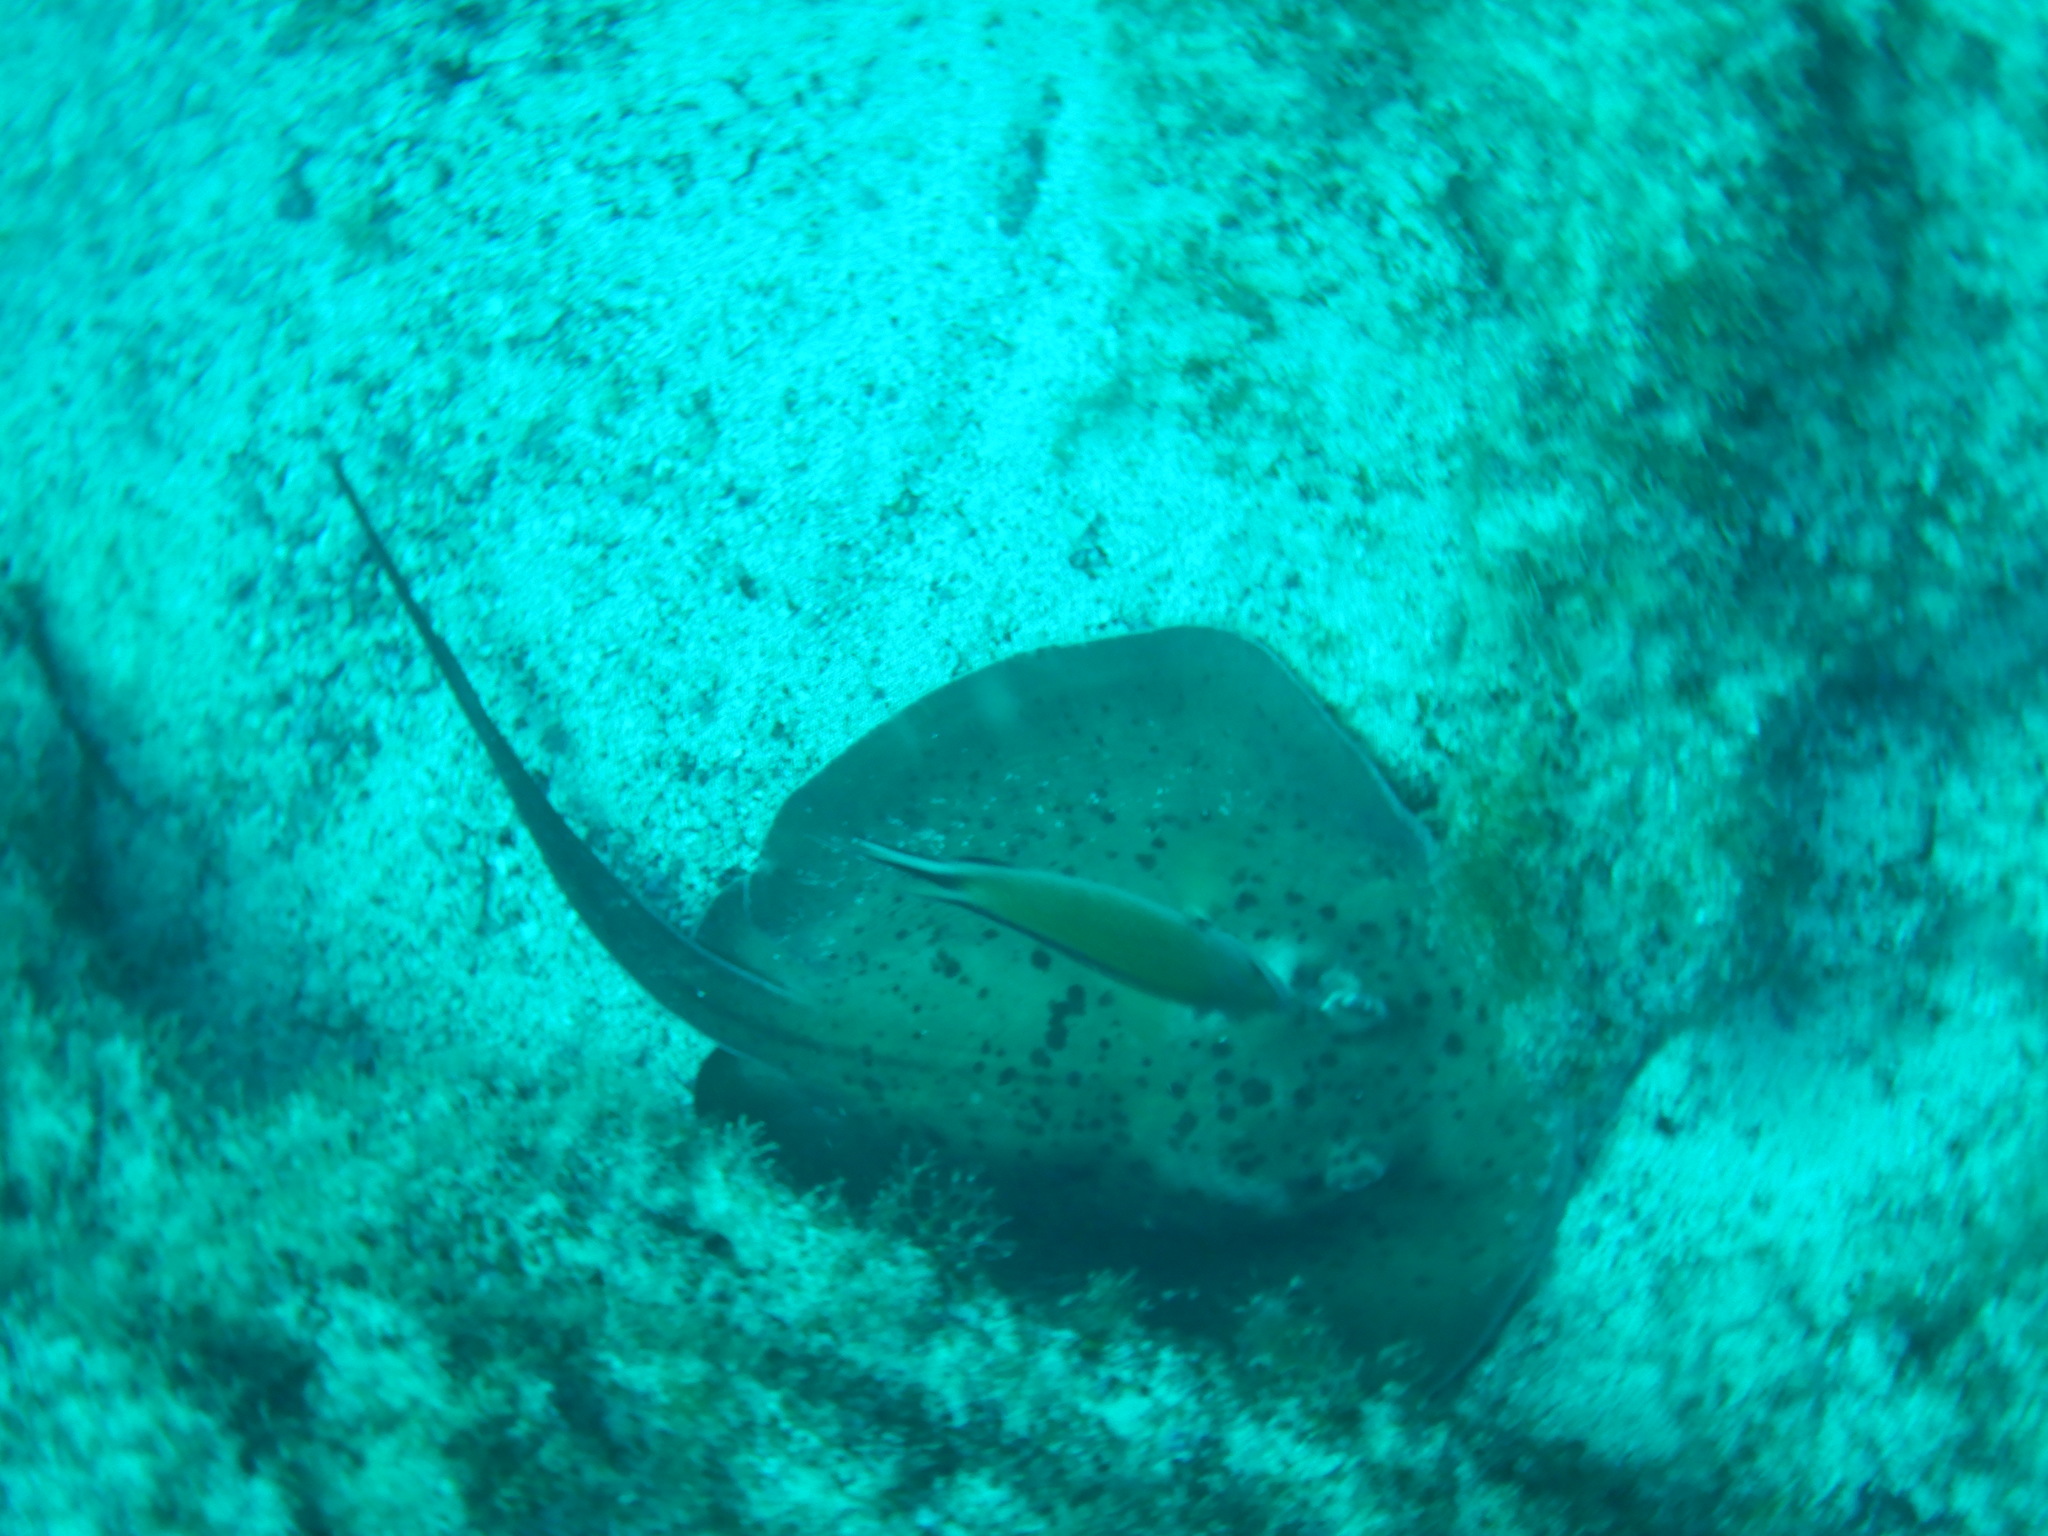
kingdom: Animalia
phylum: Chordata
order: Perciformes
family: Pomacentridae
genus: Chromis
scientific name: Chromis limbata
